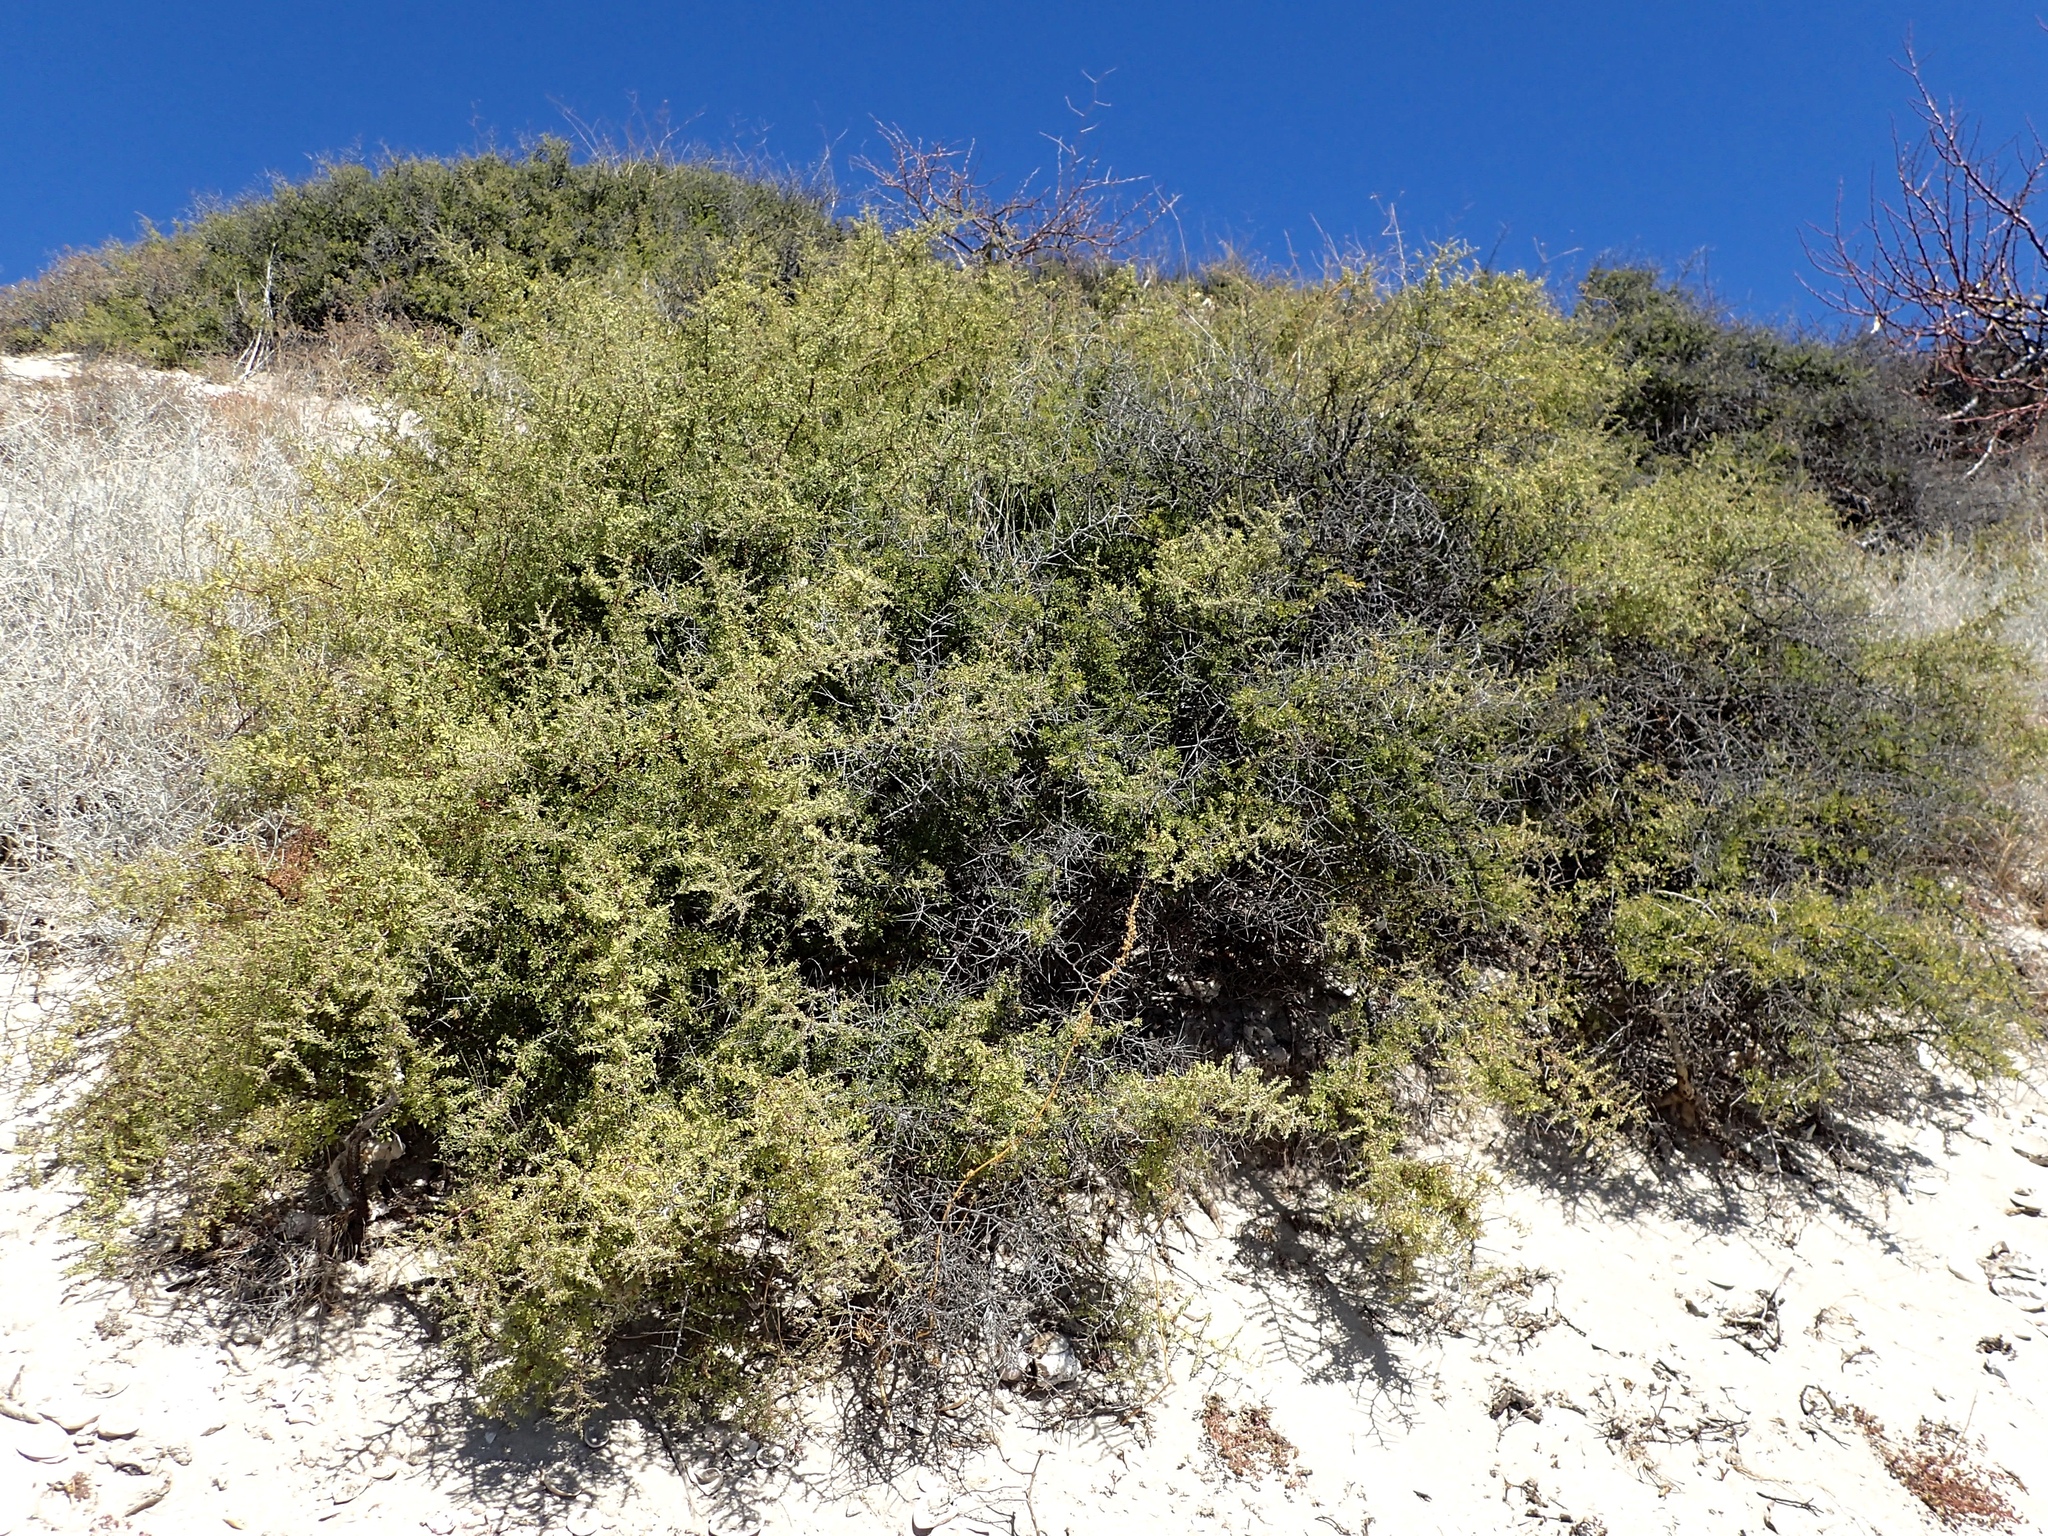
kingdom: Plantae
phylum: Tracheophyta
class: Magnoliopsida
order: Rosales
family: Rhamnaceae
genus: Condalia
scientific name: Condalia globosa
